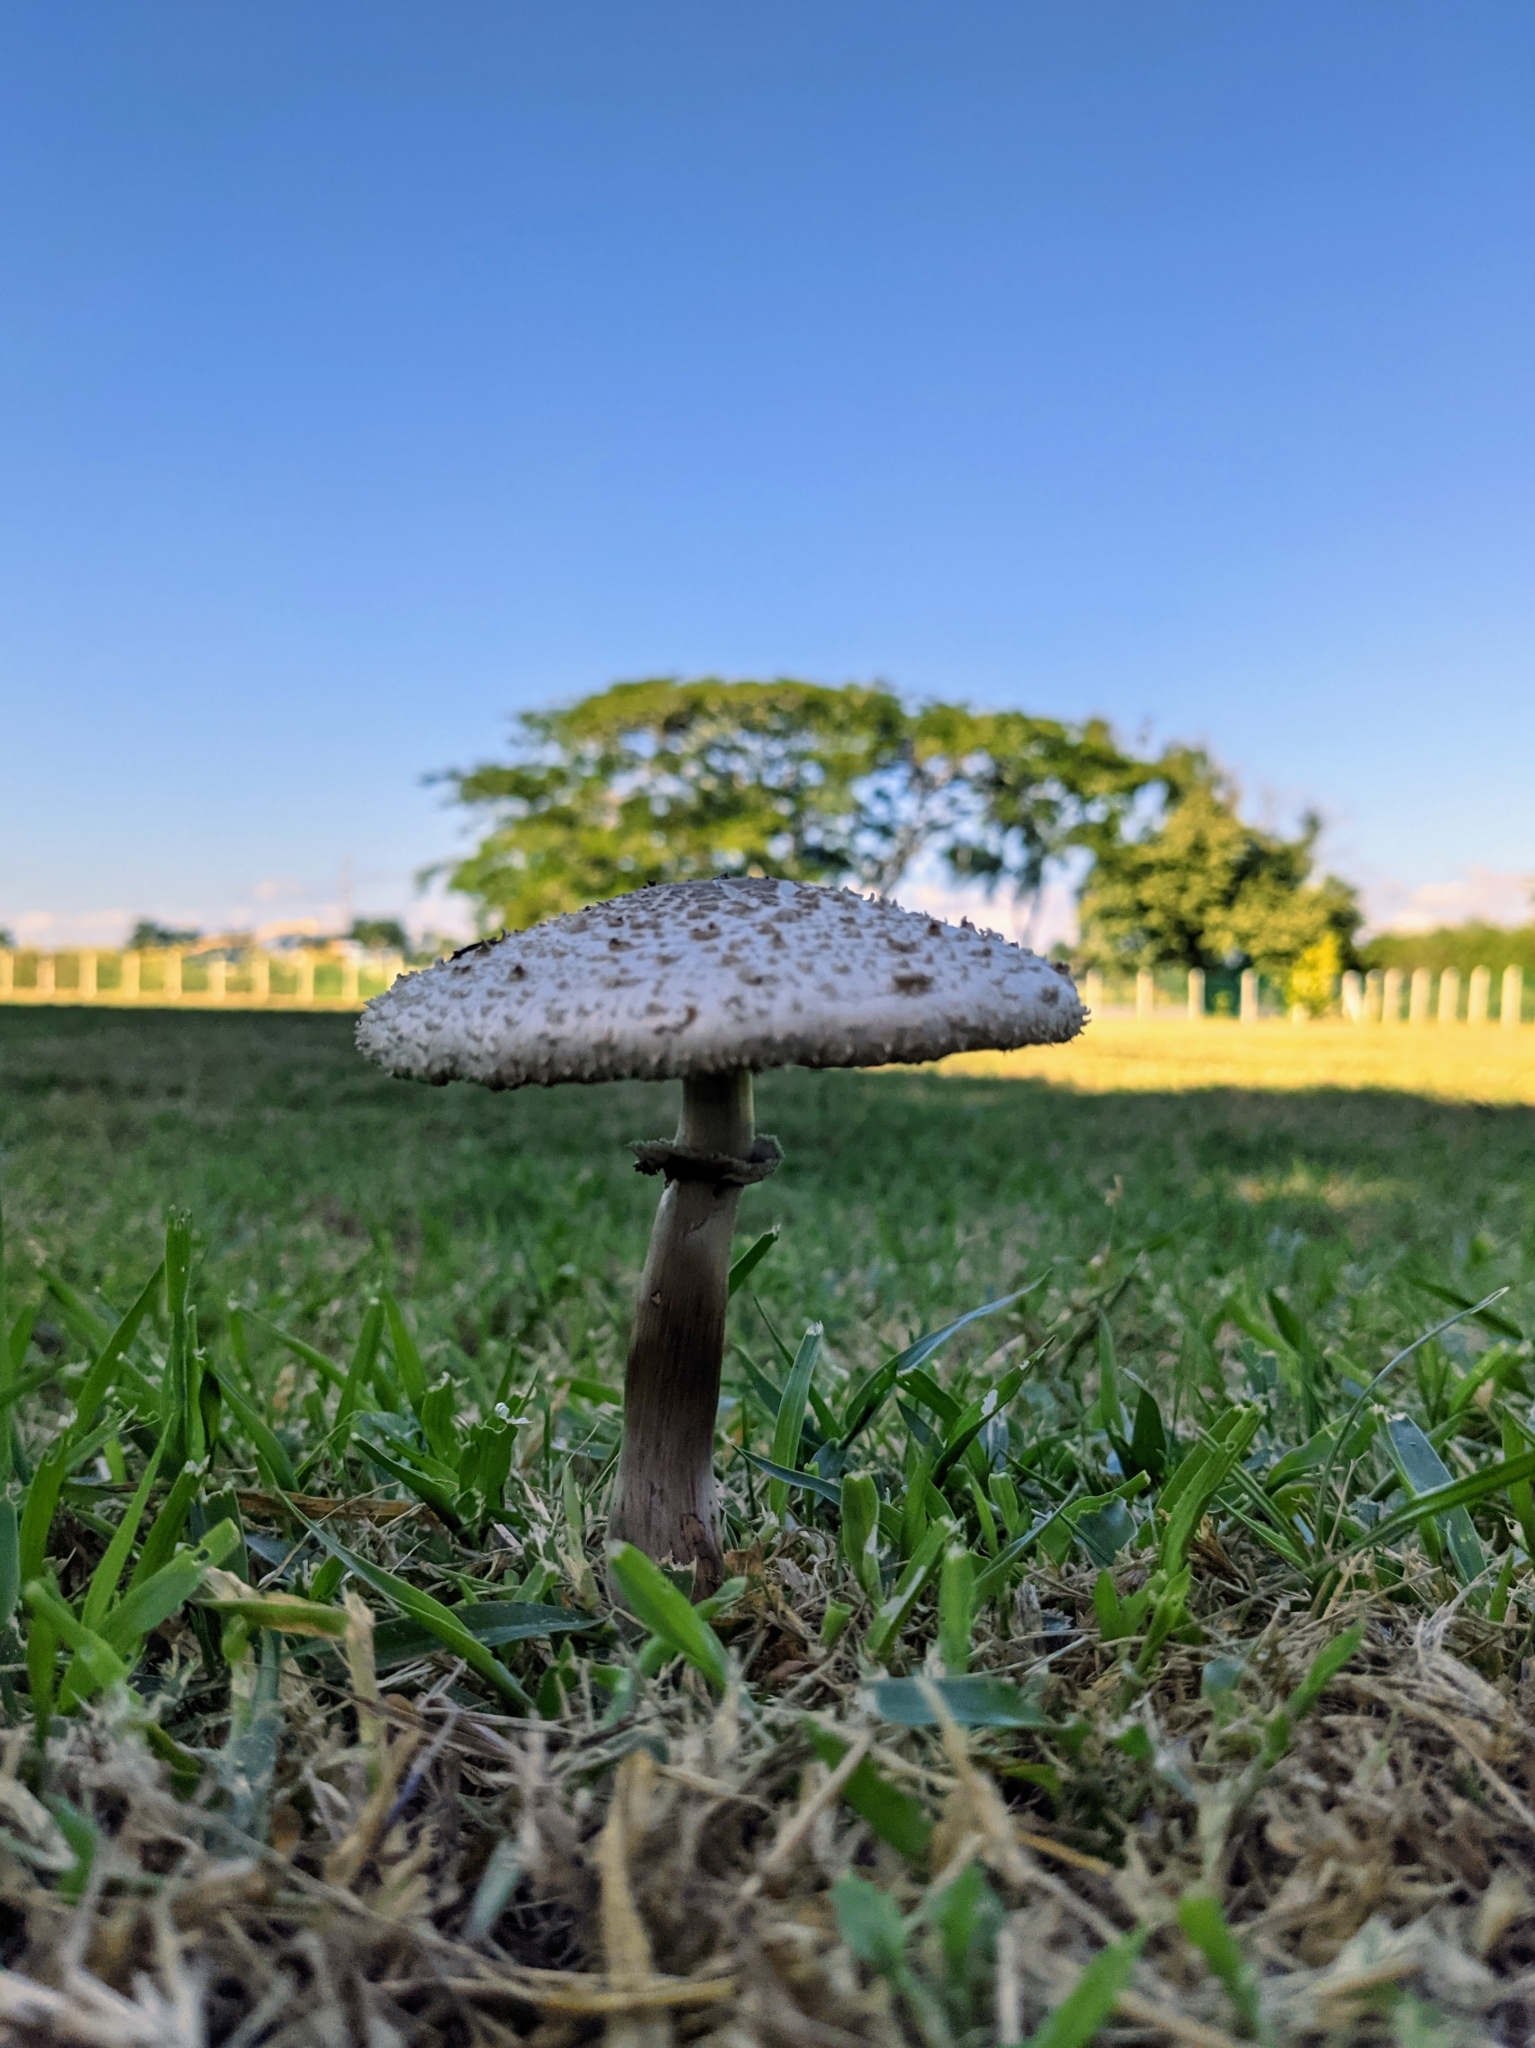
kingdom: Fungi
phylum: Basidiomycota
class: Agaricomycetes
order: Agaricales
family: Agaricaceae
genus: Chlorophyllum
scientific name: Chlorophyllum molybdites
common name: False parasol
